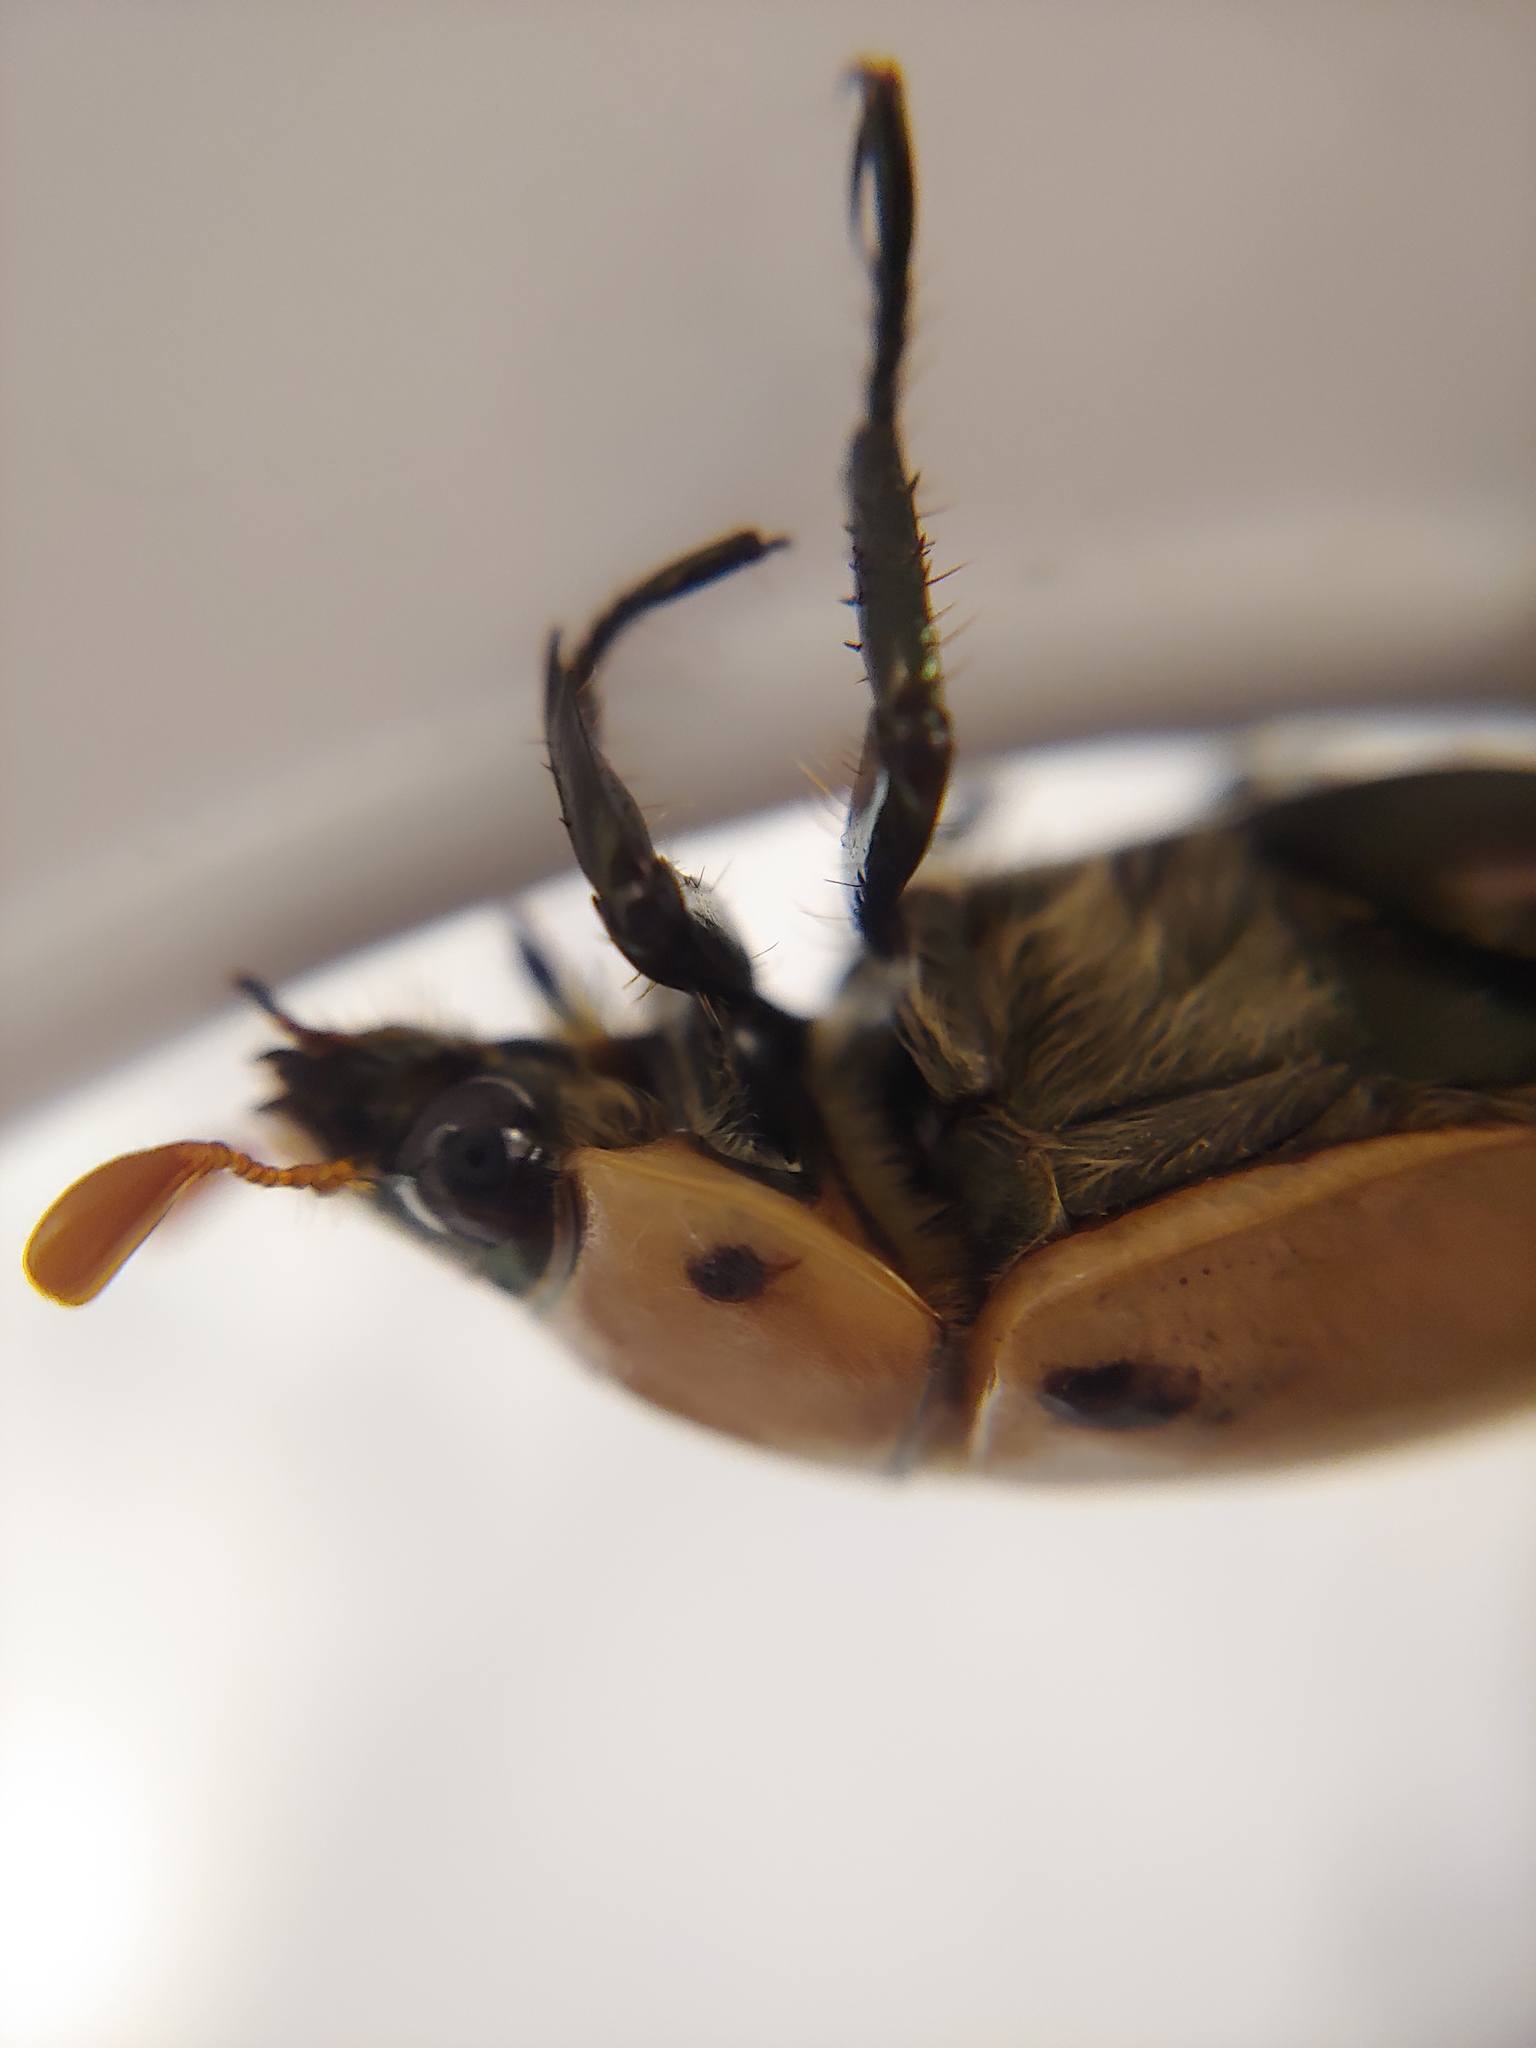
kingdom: Animalia
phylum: Arthropoda
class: Insecta
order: Coleoptera
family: Scarabaeidae
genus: Pelidnota
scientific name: Pelidnota punctata
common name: Grapevine beetle
